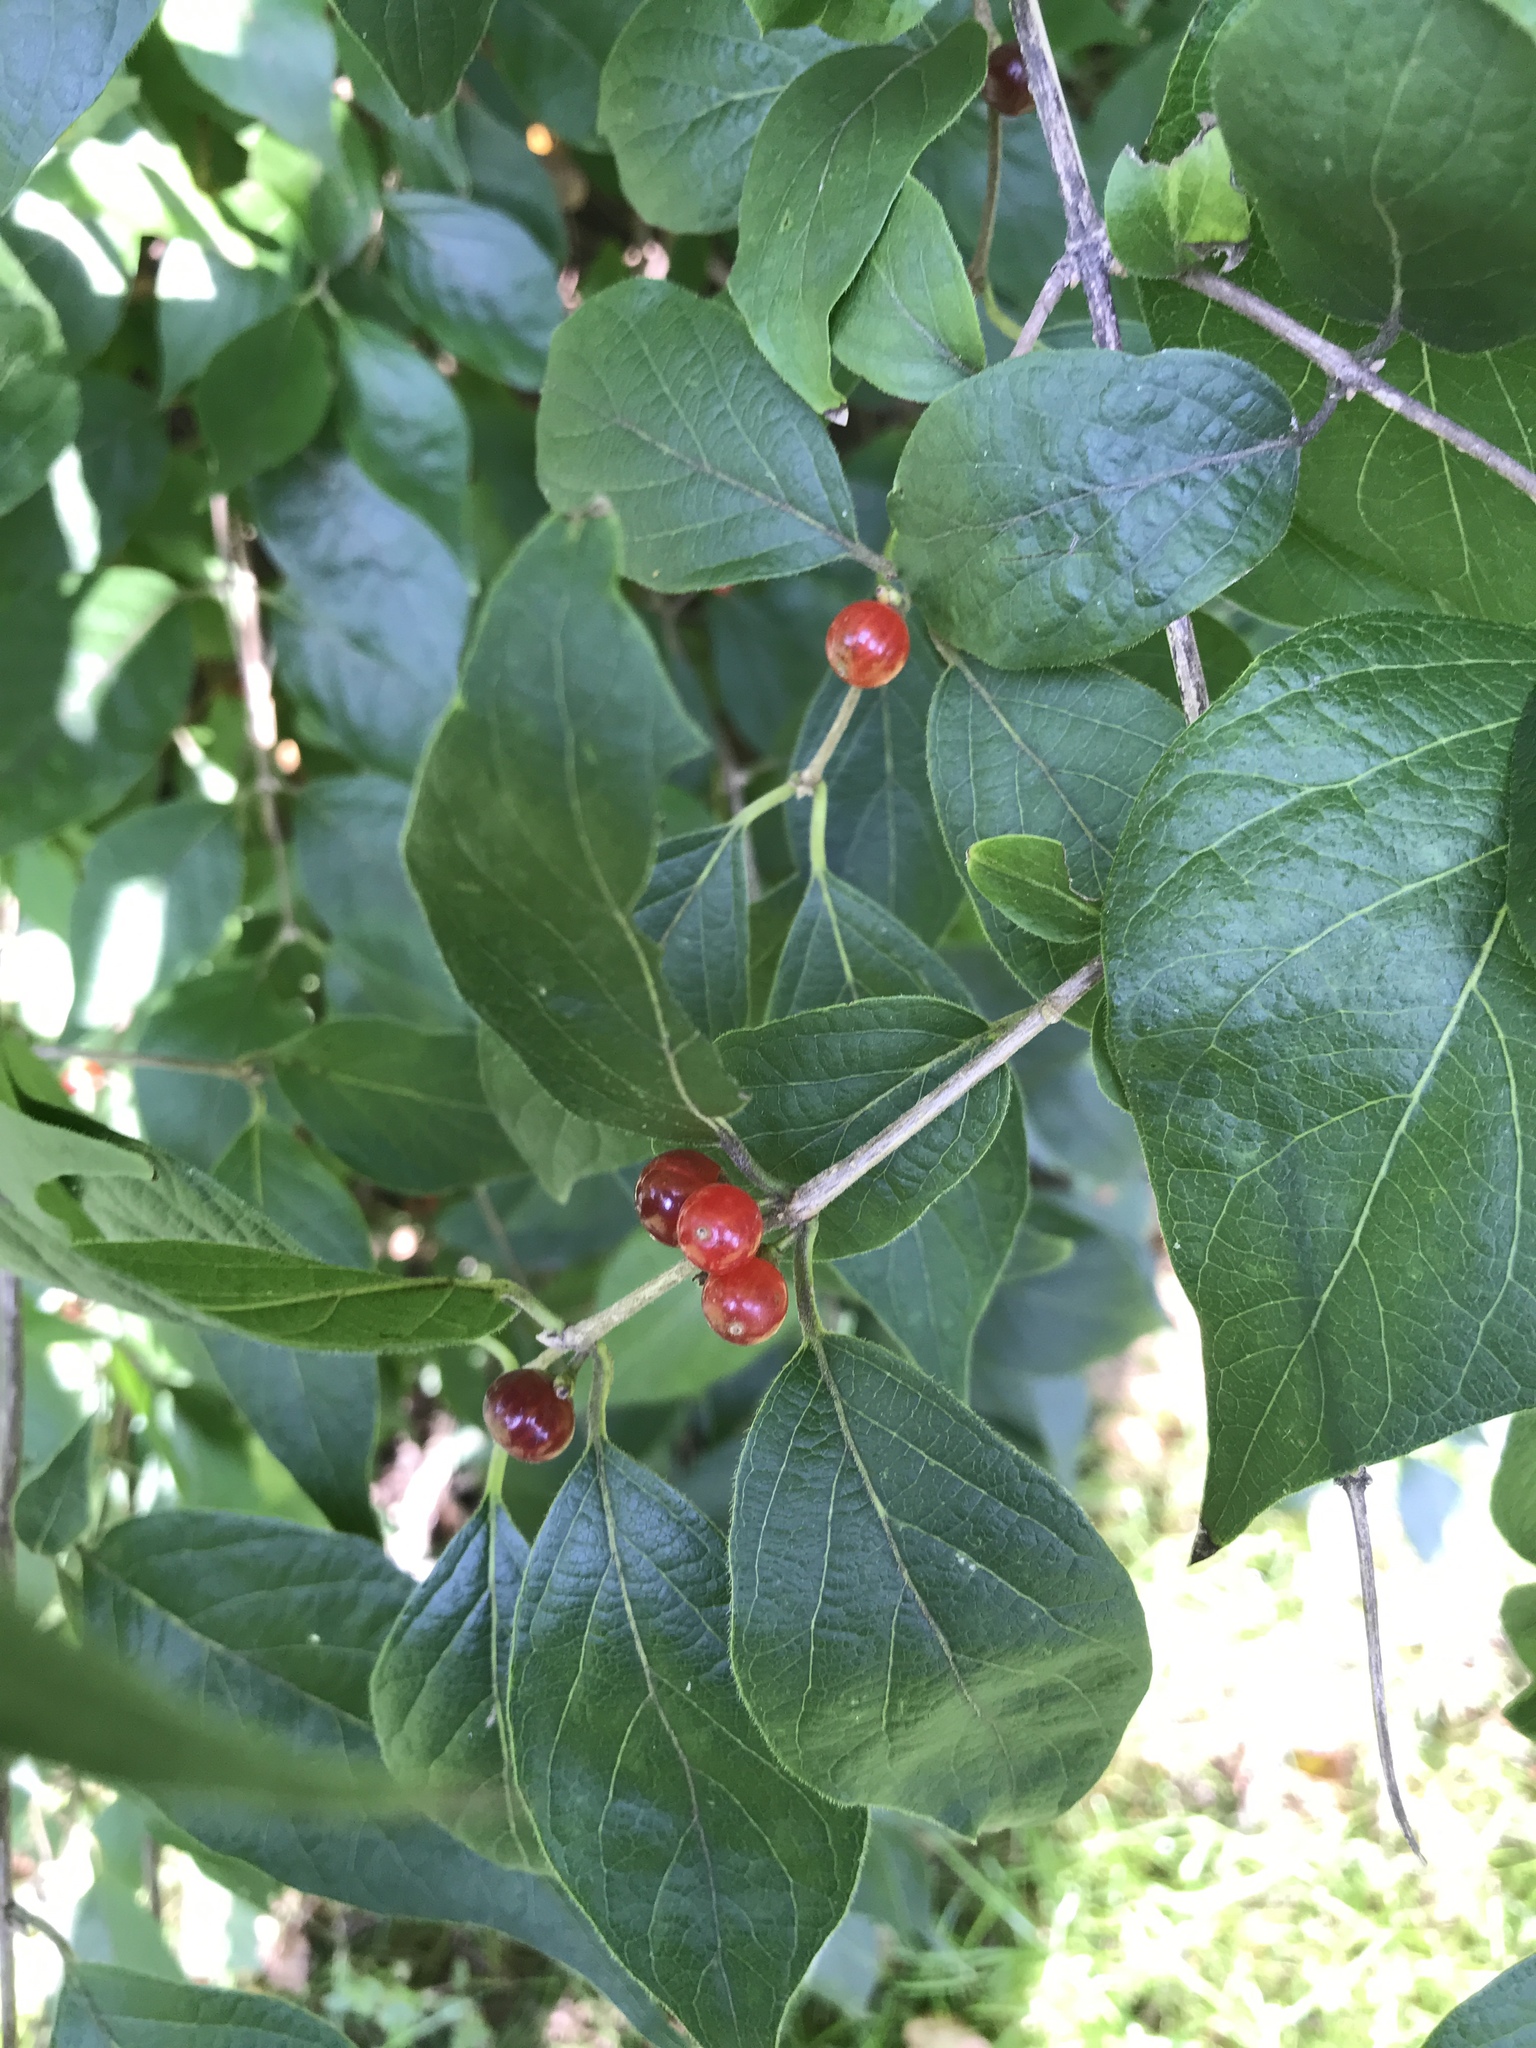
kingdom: Plantae
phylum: Tracheophyta
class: Magnoliopsida
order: Dipsacales
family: Caprifoliaceae
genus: Lonicera
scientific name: Lonicera maackii
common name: Amur honeysuckle
